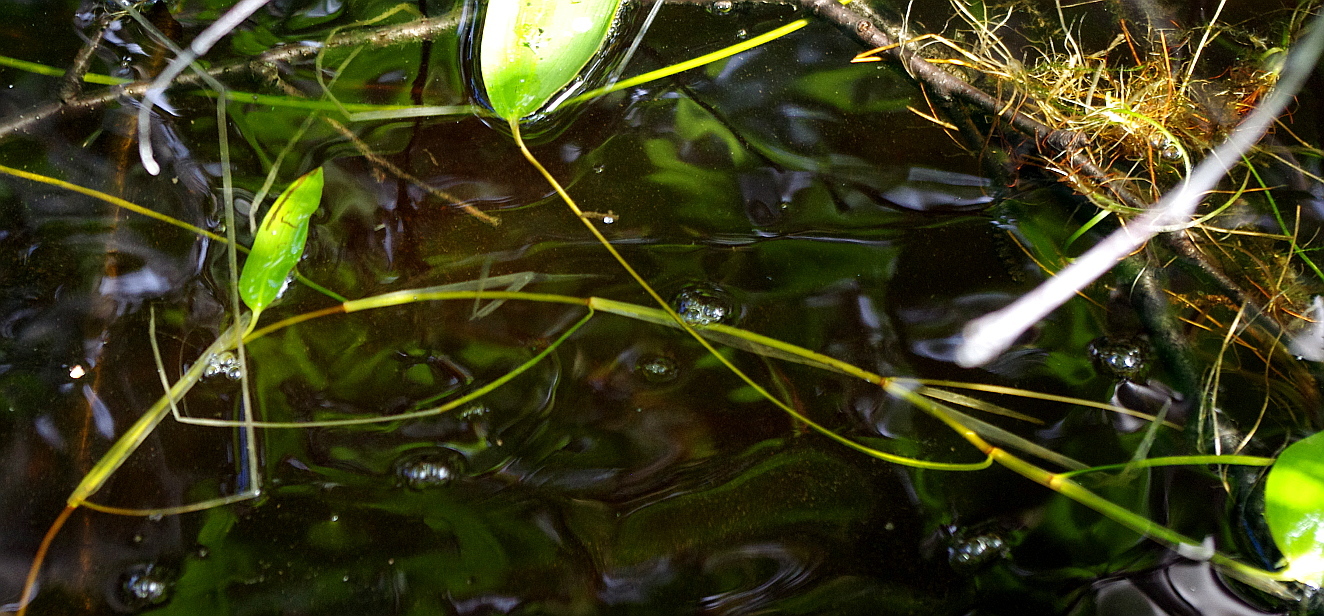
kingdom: Plantae
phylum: Tracheophyta
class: Liliopsida
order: Alismatales
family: Potamogetonaceae
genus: Potamogeton
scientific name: Potamogeton natans
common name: Broad-leaved pondweed
